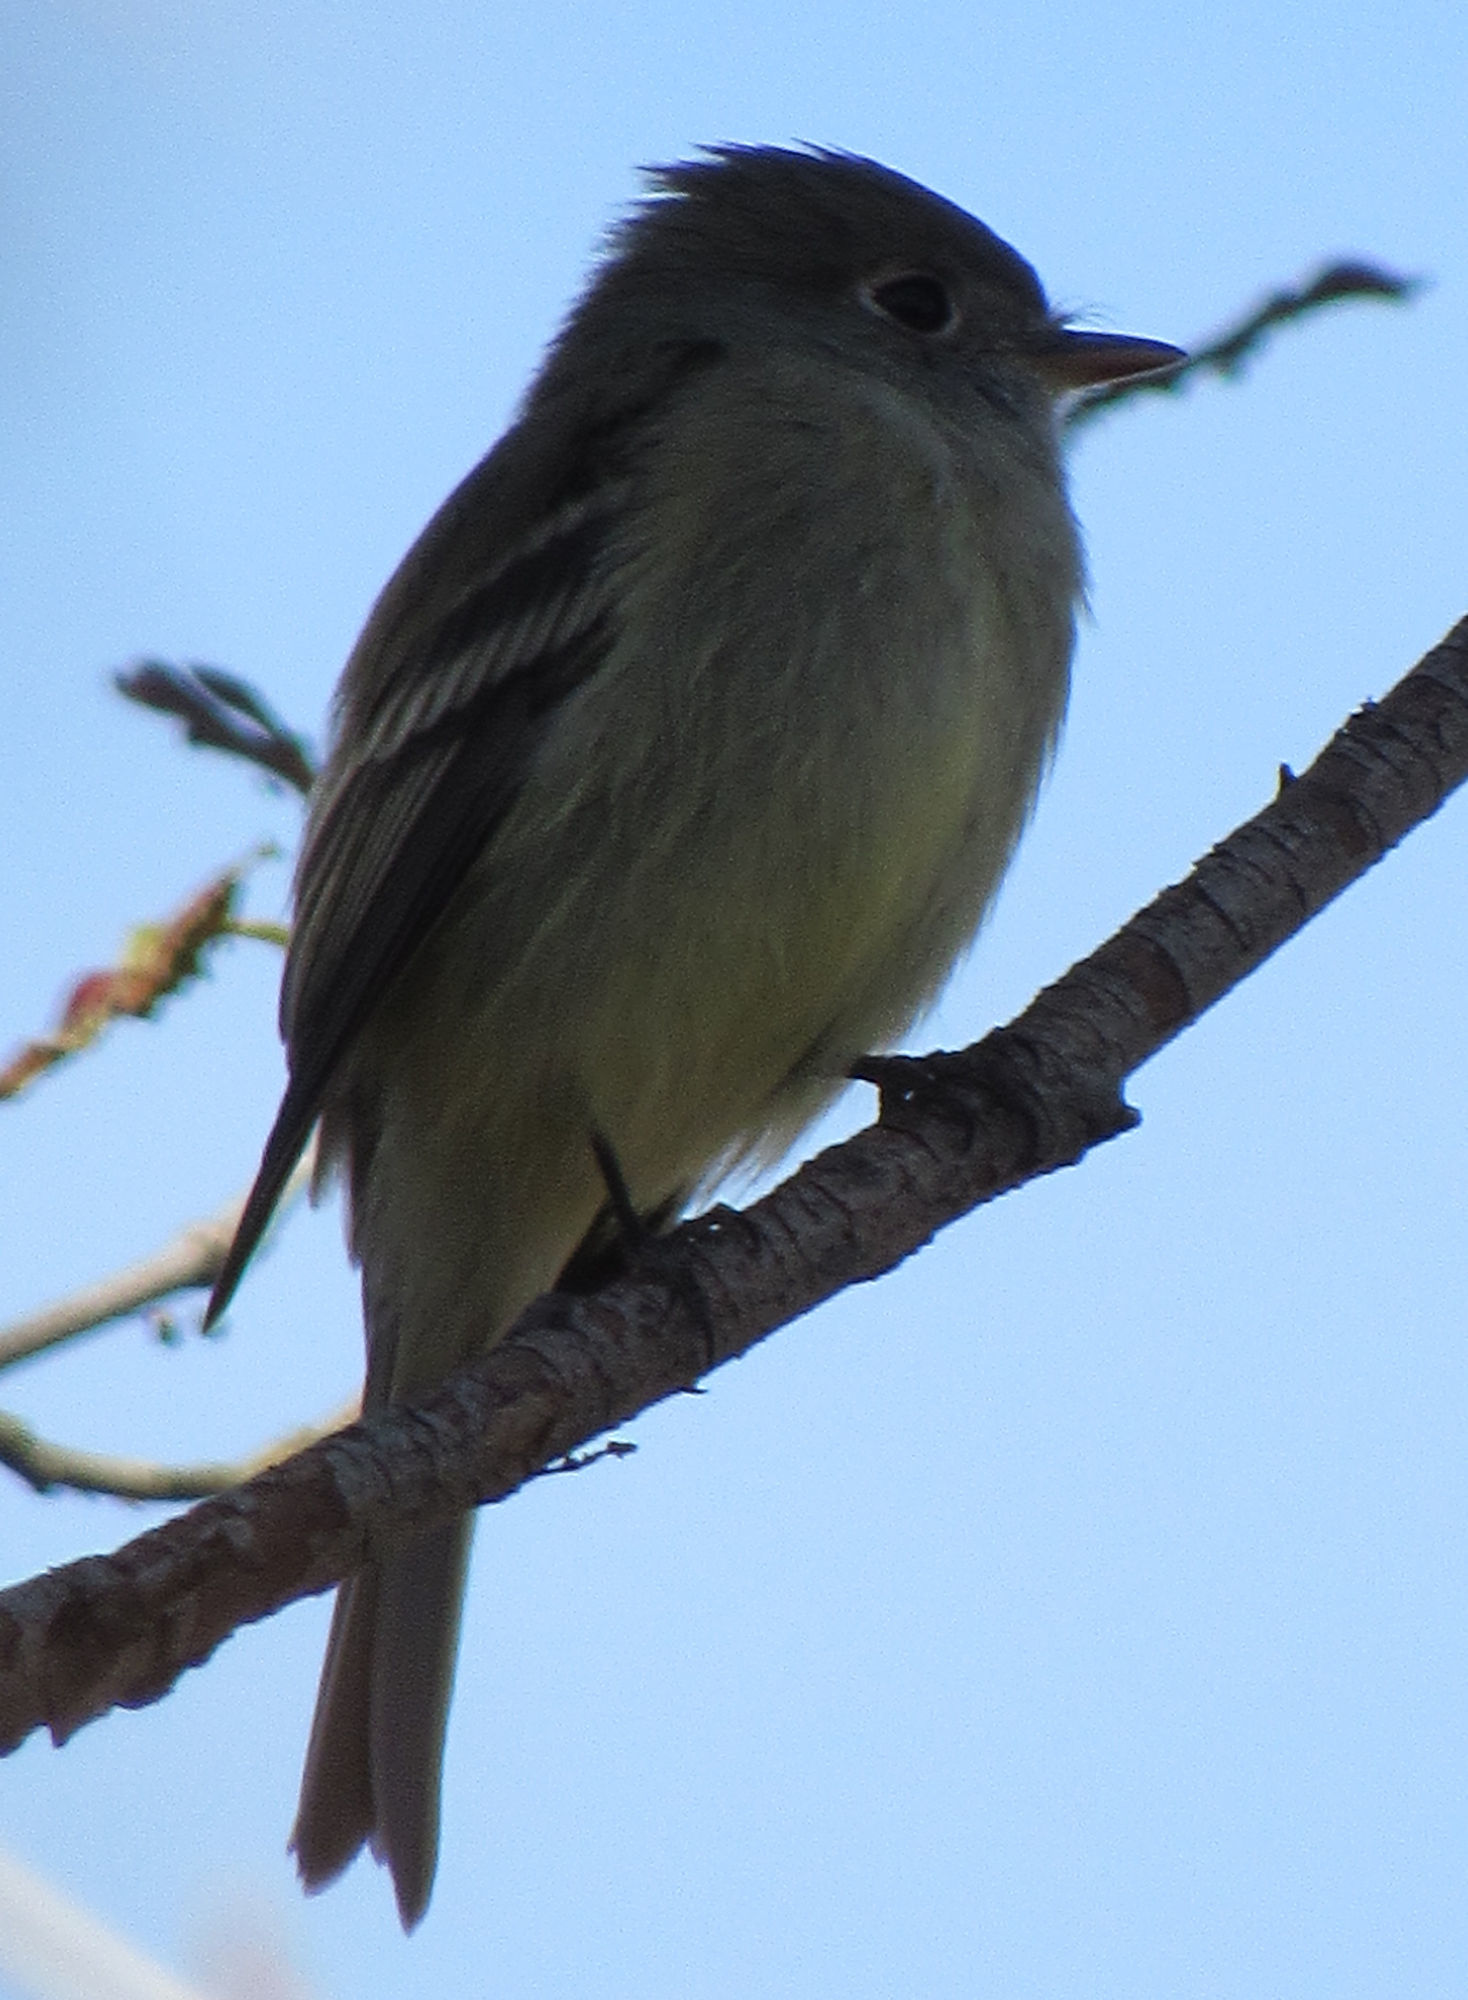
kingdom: Animalia
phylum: Chordata
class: Aves
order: Passeriformes
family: Tyrannidae
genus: Empidonax
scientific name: Empidonax hammondii
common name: Hammond's flycatcher
